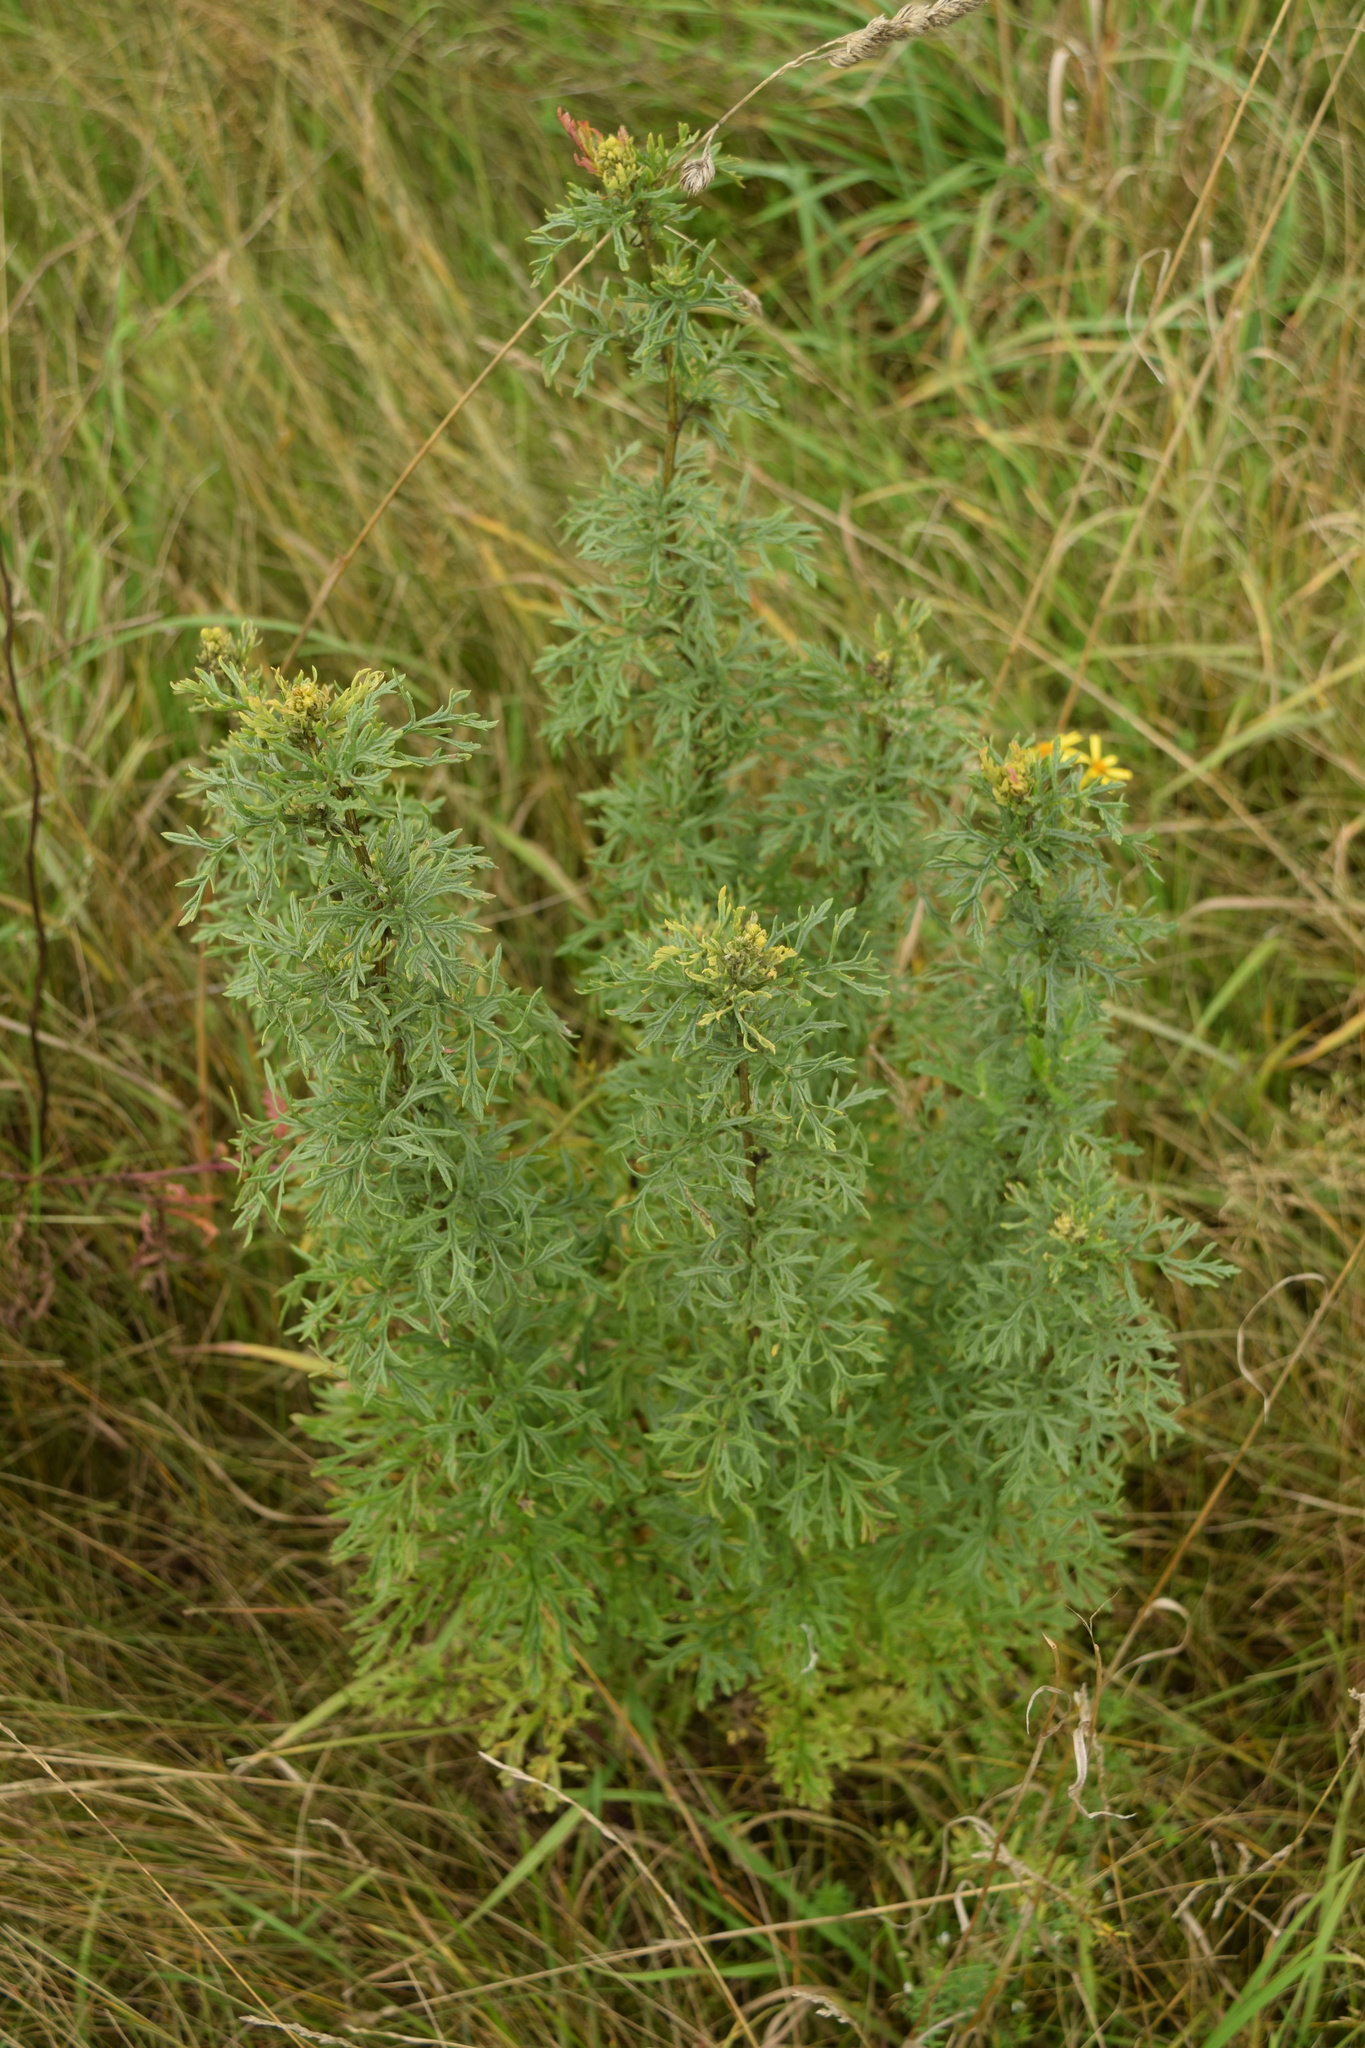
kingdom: Plantae
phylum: Tracheophyta
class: Magnoliopsida
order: Asterales
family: Asteraceae
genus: Jacobaea
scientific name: Jacobaea erucifolia
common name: Hoary ragwort
